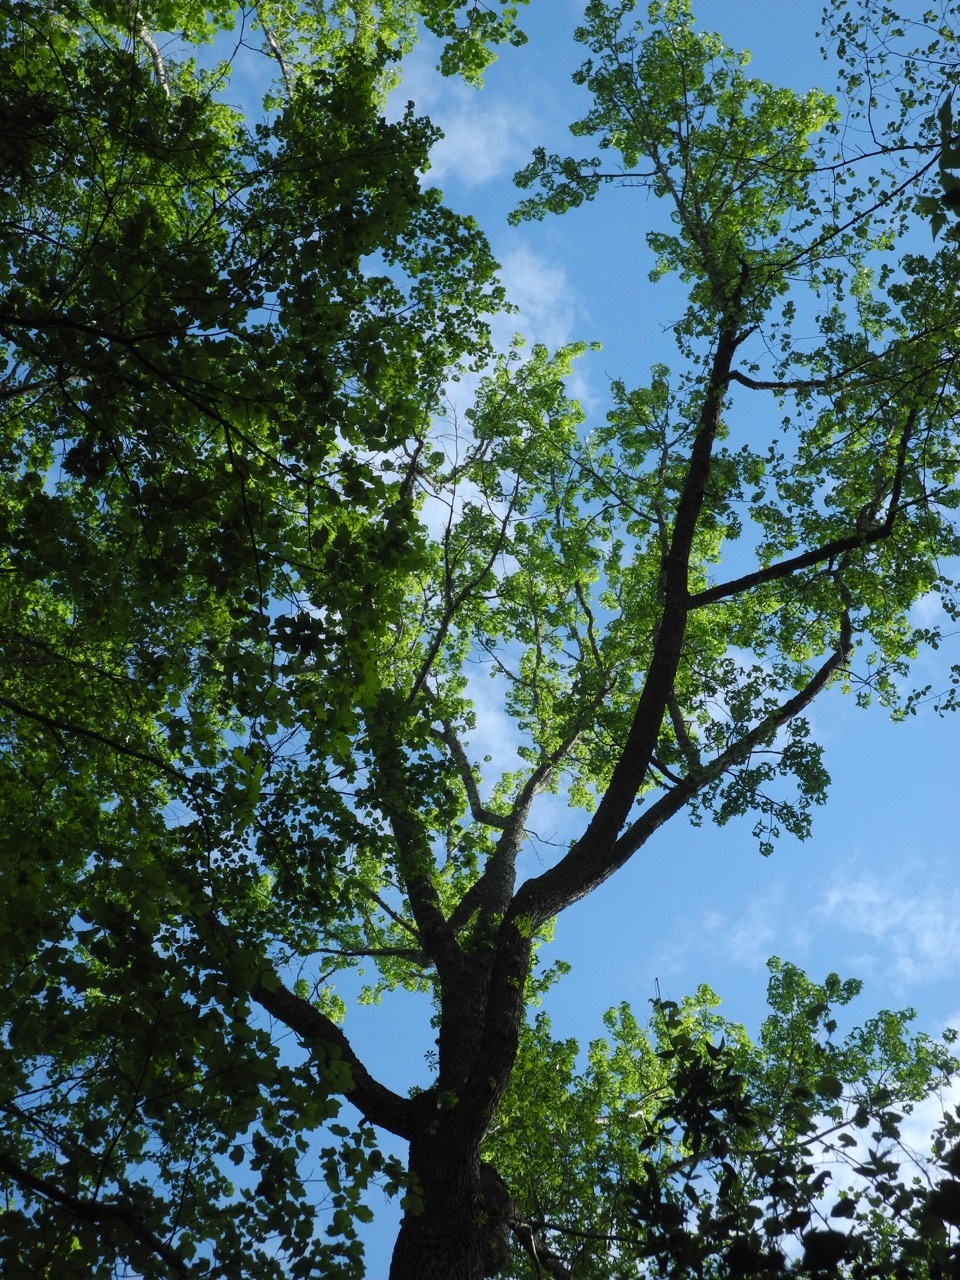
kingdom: Plantae
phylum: Tracheophyta
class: Magnoliopsida
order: Saxifragales
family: Altingiaceae
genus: Liquidambar
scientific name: Liquidambar styraciflua
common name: Sweet gum
